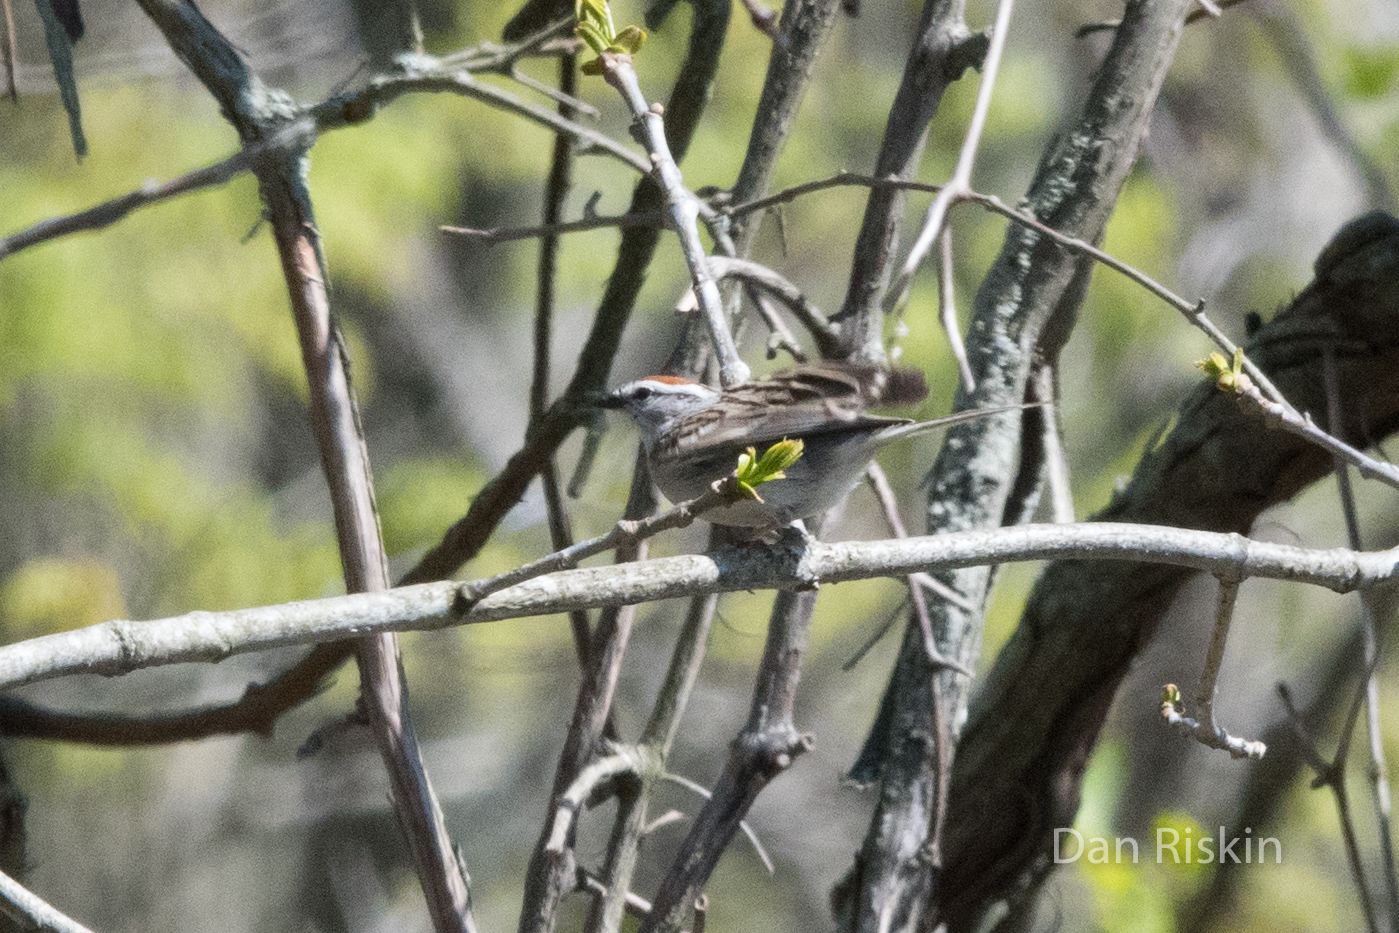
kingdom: Animalia
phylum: Chordata
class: Aves
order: Passeriformes
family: Passerellidae
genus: Spizella
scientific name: Spizella passerina
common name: Chipping sparrow
